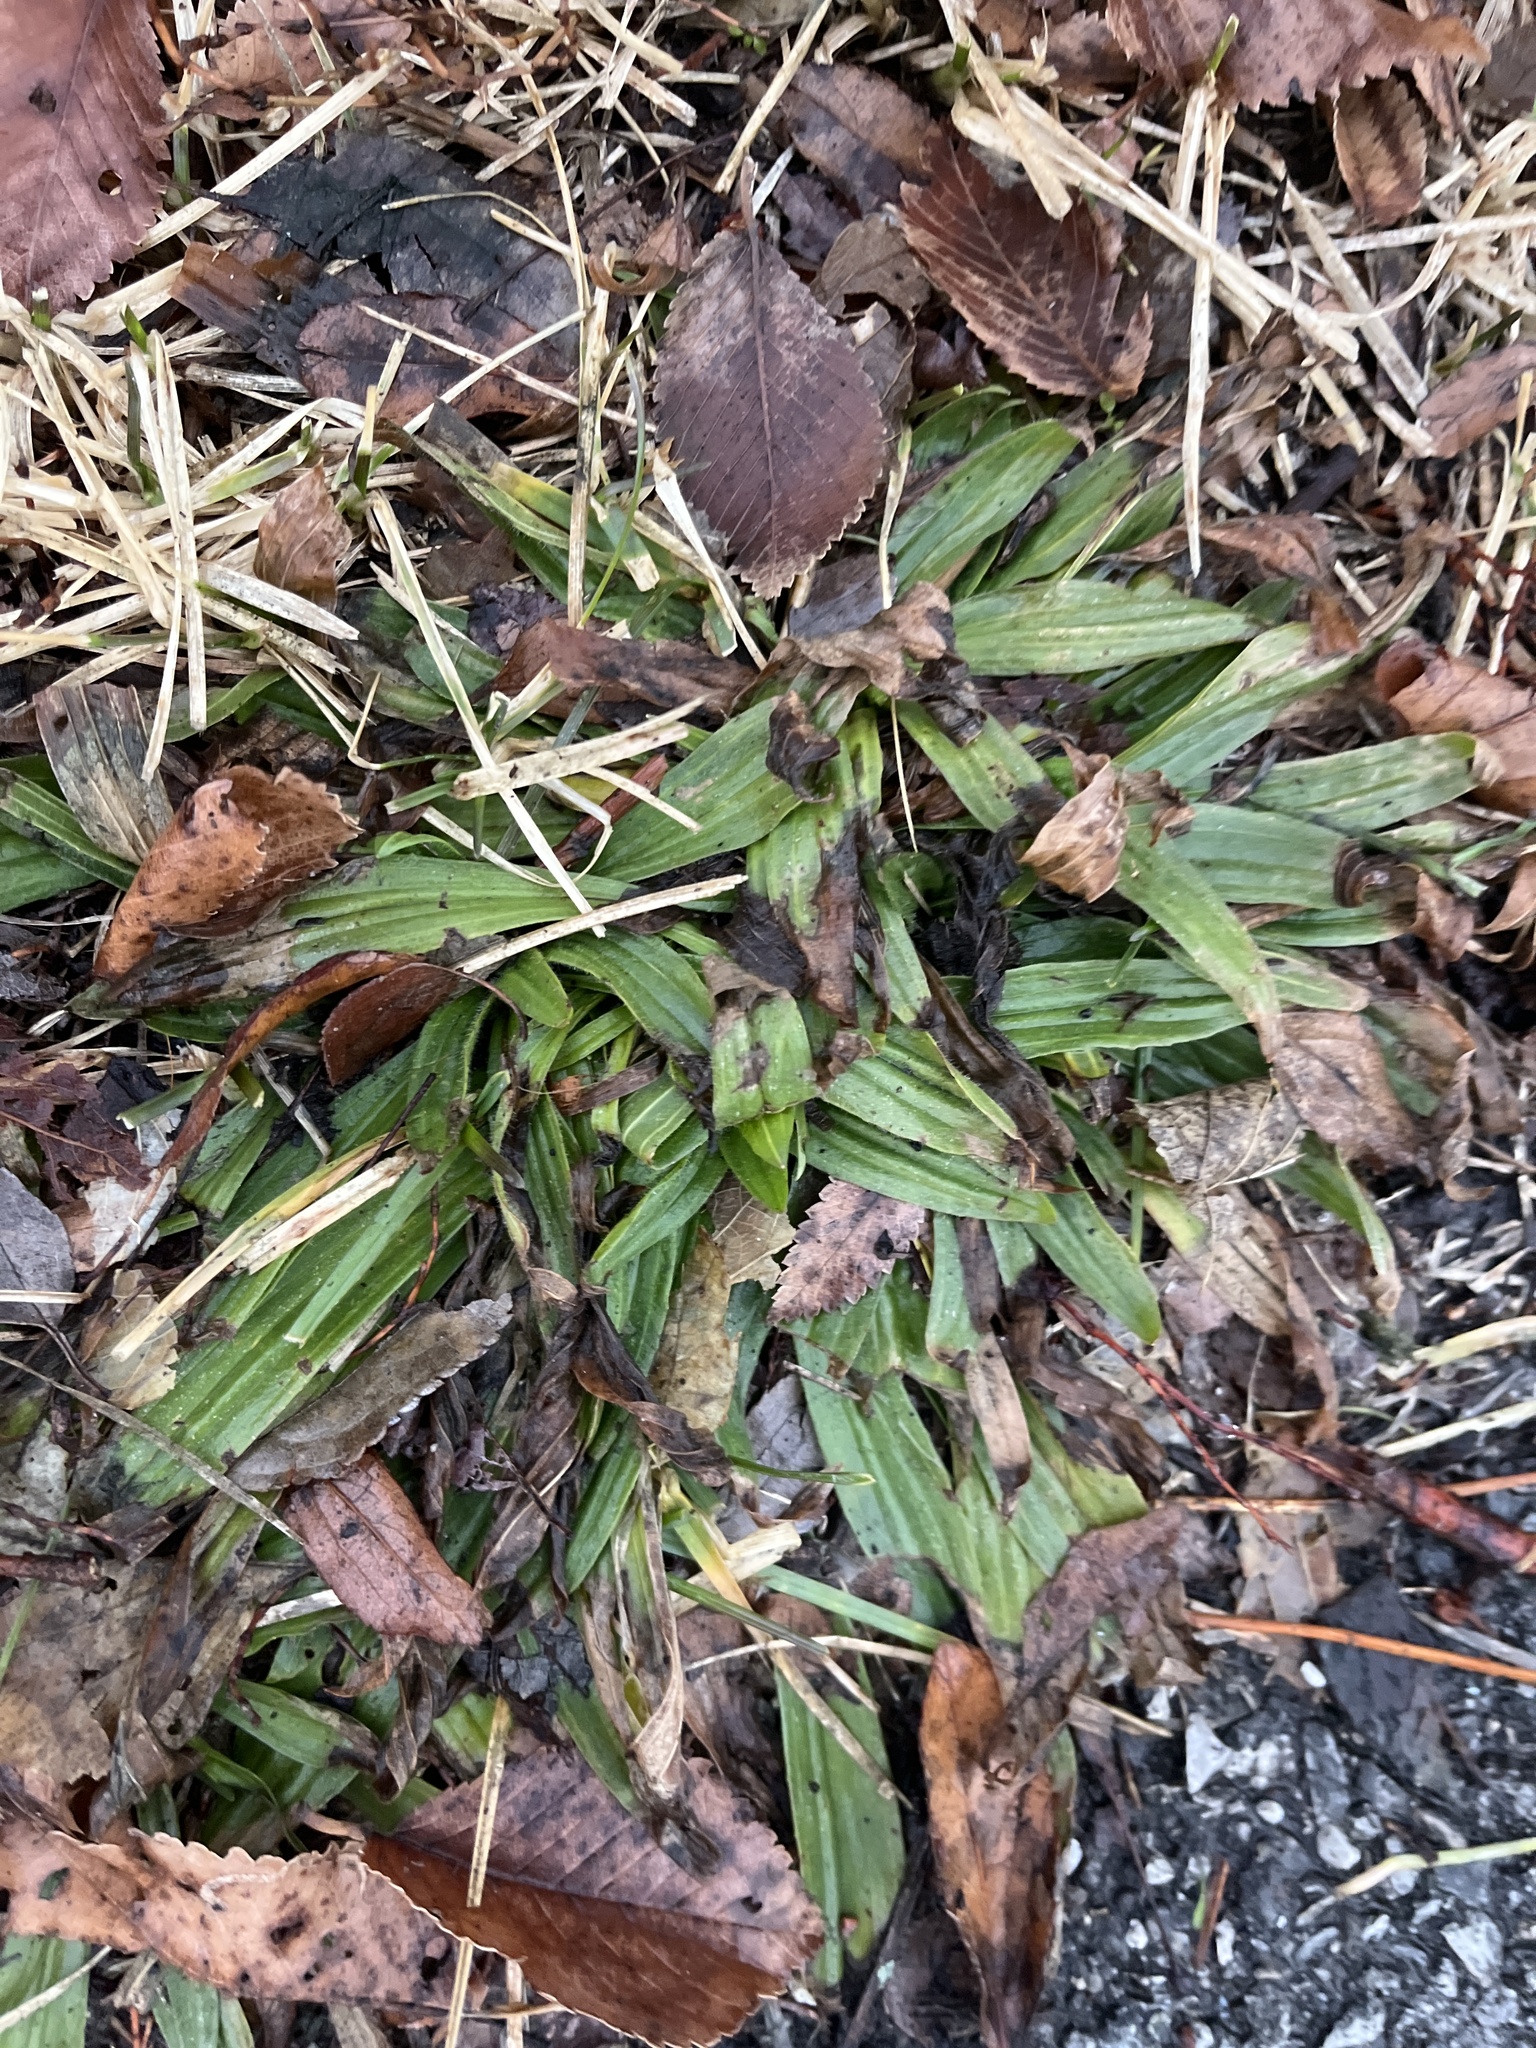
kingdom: Plantae
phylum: Tracheophyta
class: Magnoliopsida
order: Lamiales
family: Plantaginaceae
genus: Plantago
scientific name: Plantago lanceolata
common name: Ribwort plantain
